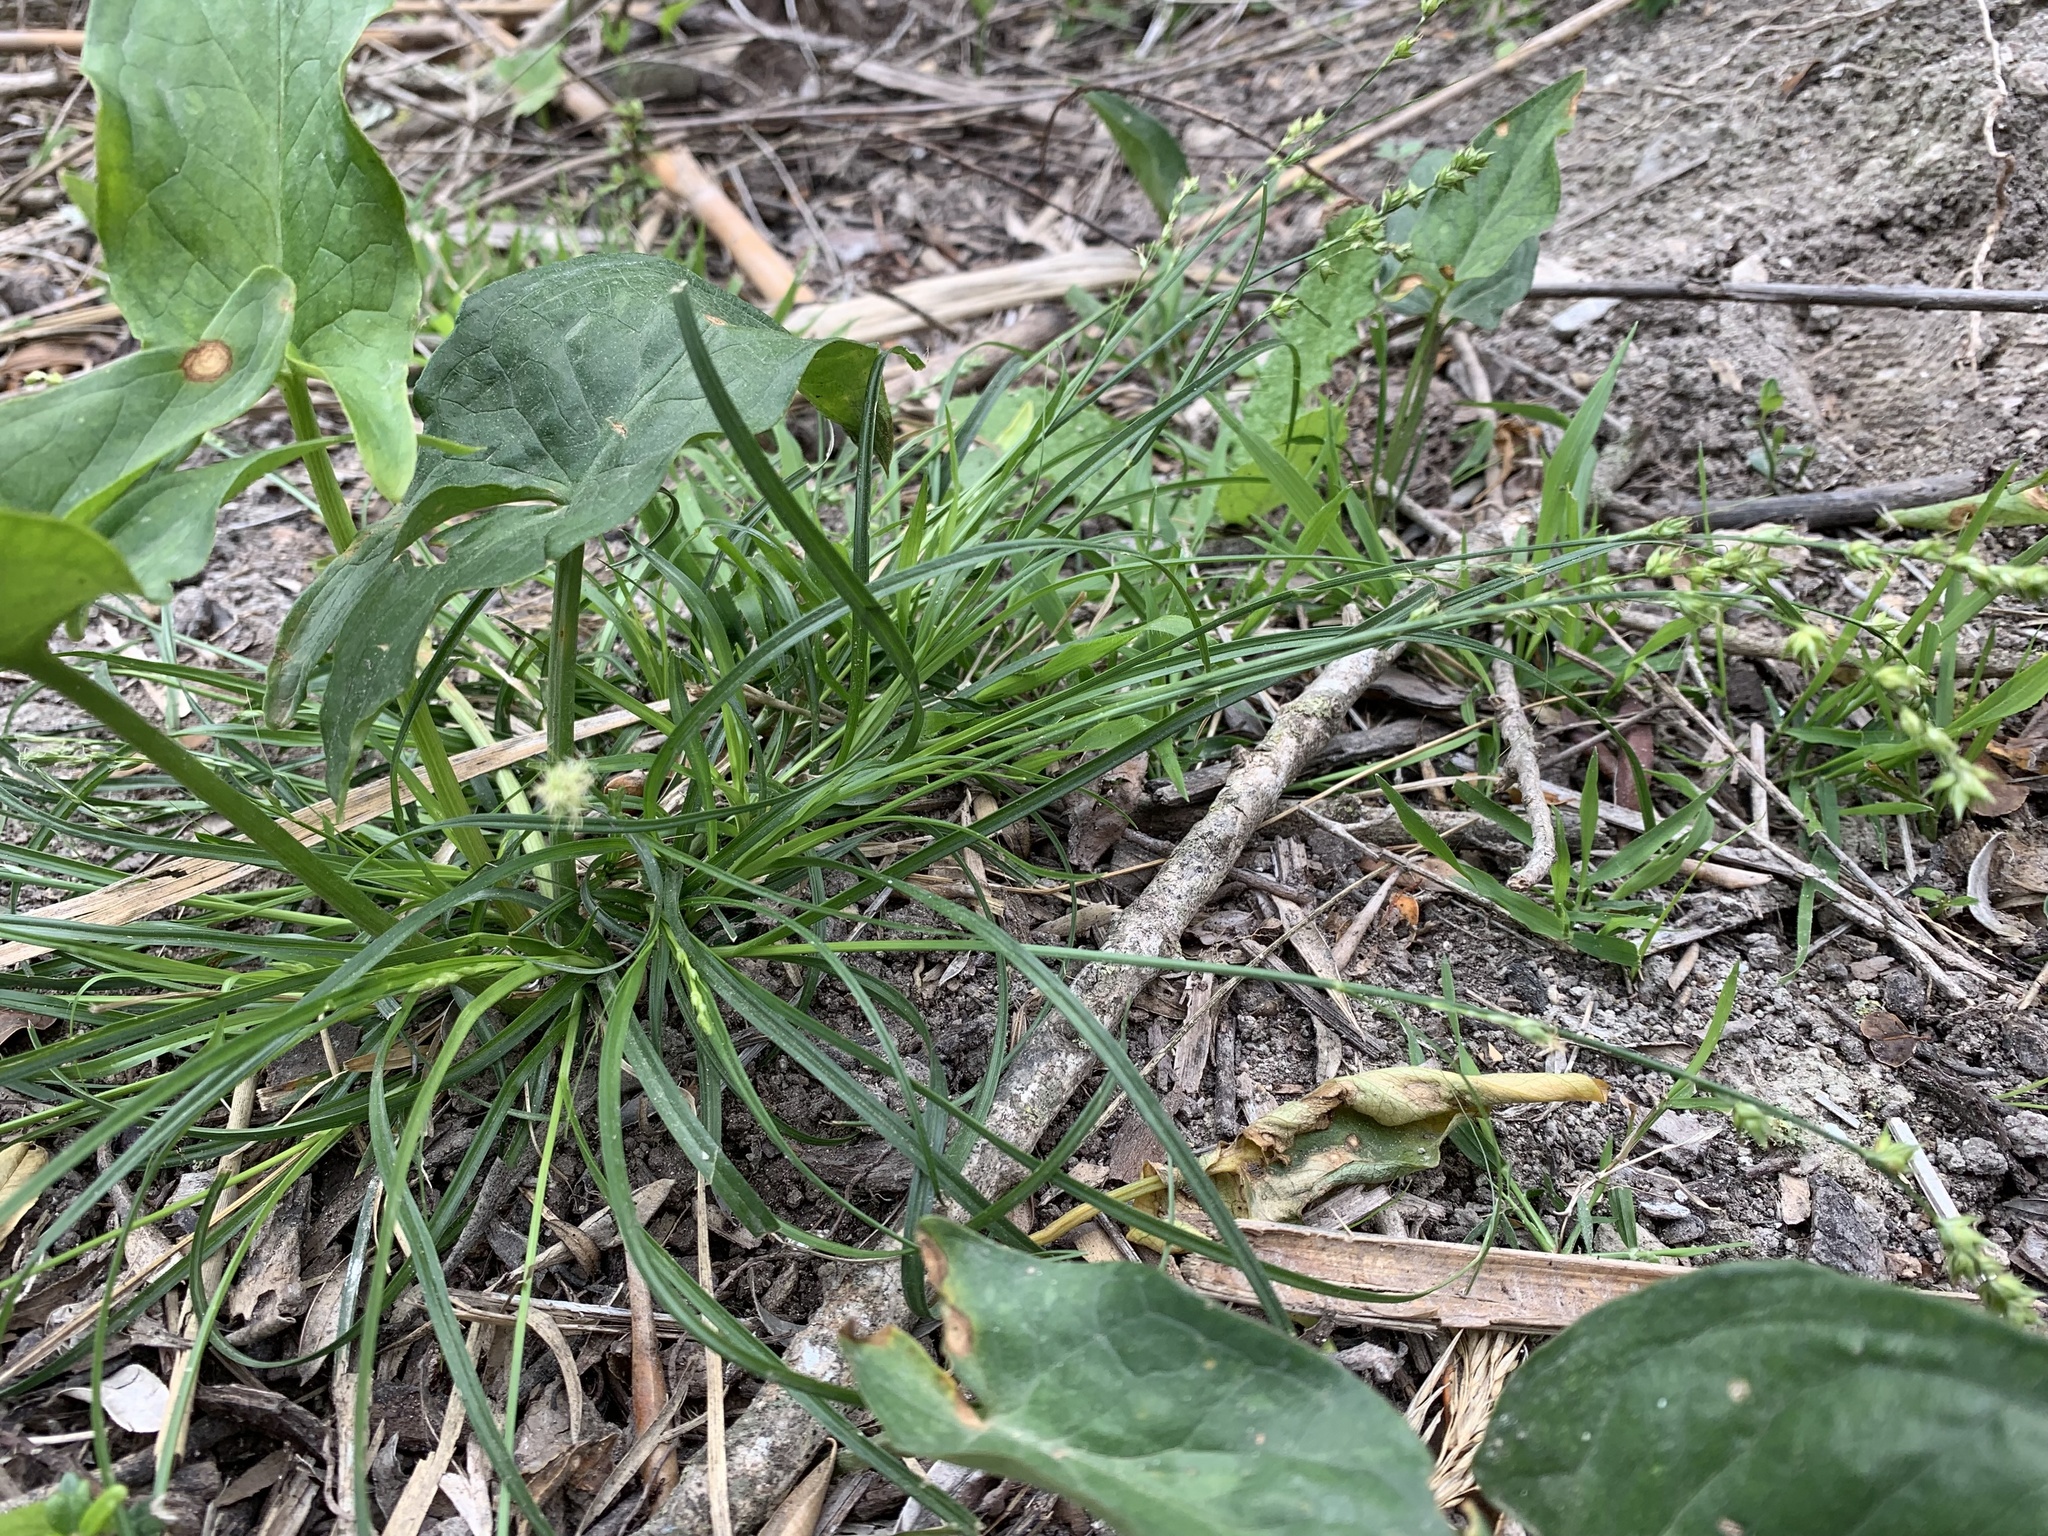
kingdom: Plantae
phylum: Tracheophyta
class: Liliopsida
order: Poales
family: Cyperaceae
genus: Carex
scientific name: Carex divulsa
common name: Grassland sedge
